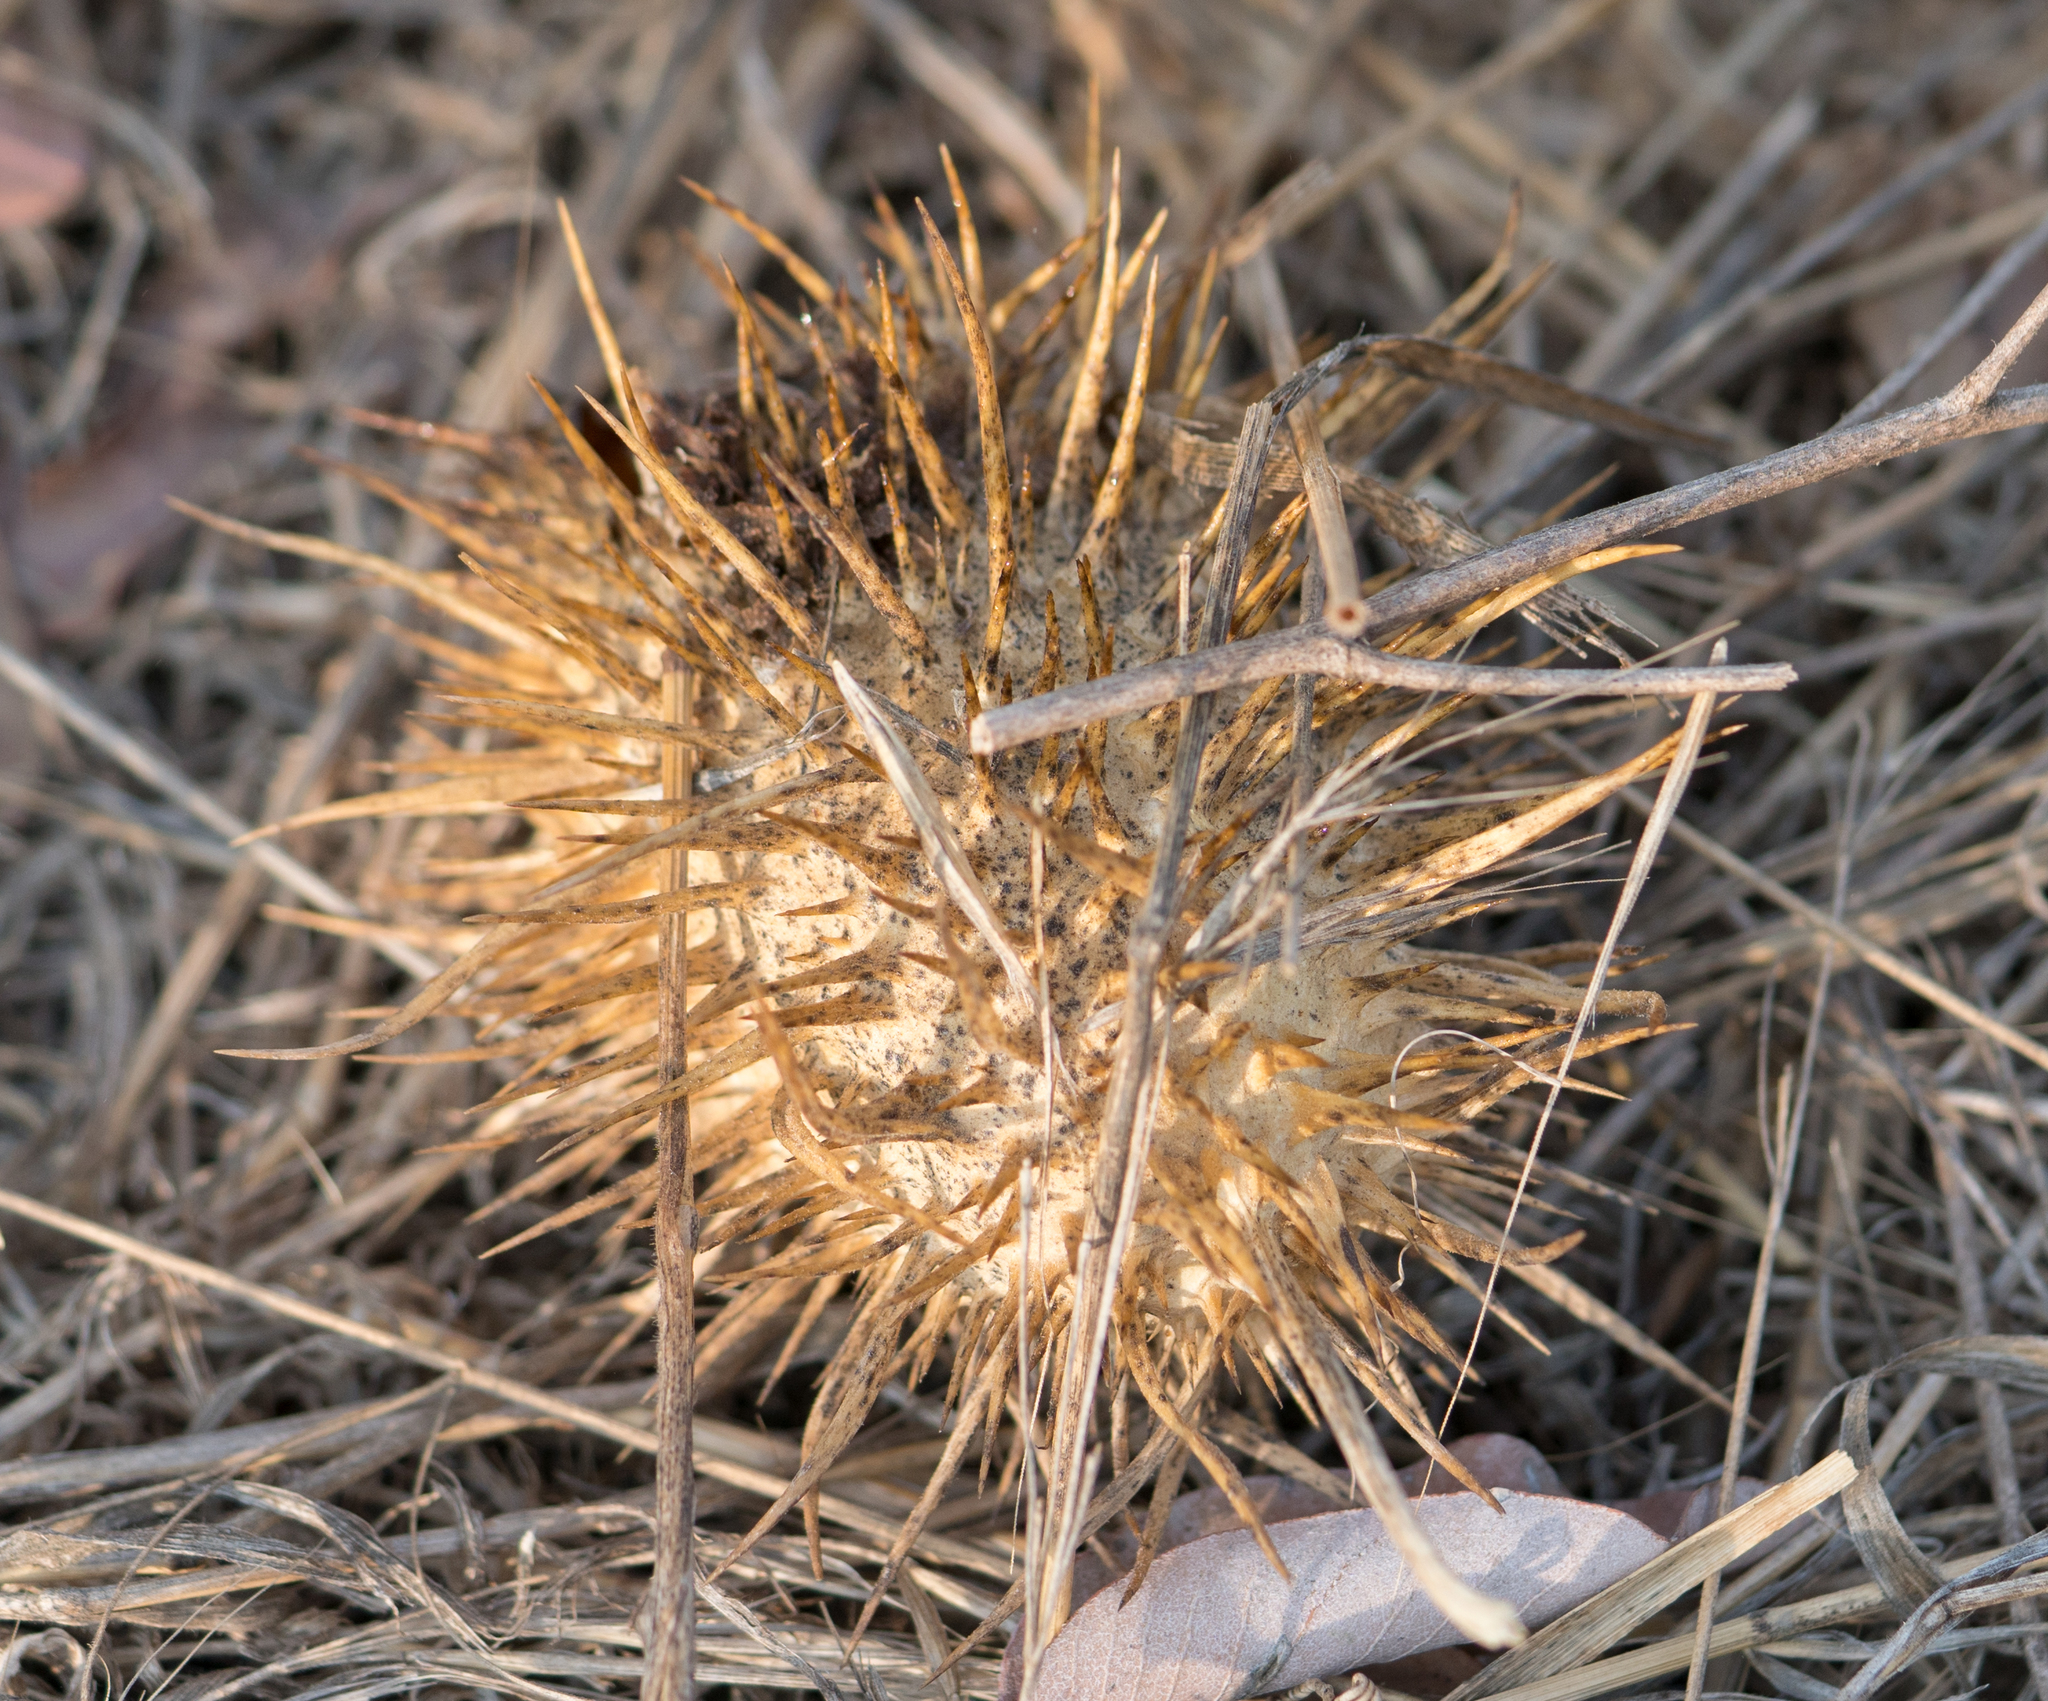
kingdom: Plantae
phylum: Tracheophyta
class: Magnoliopsida
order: Cucurbitales
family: Cucurbitaceae
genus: Marah
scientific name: Marah macrocarpa
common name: Cucamonga manroot
